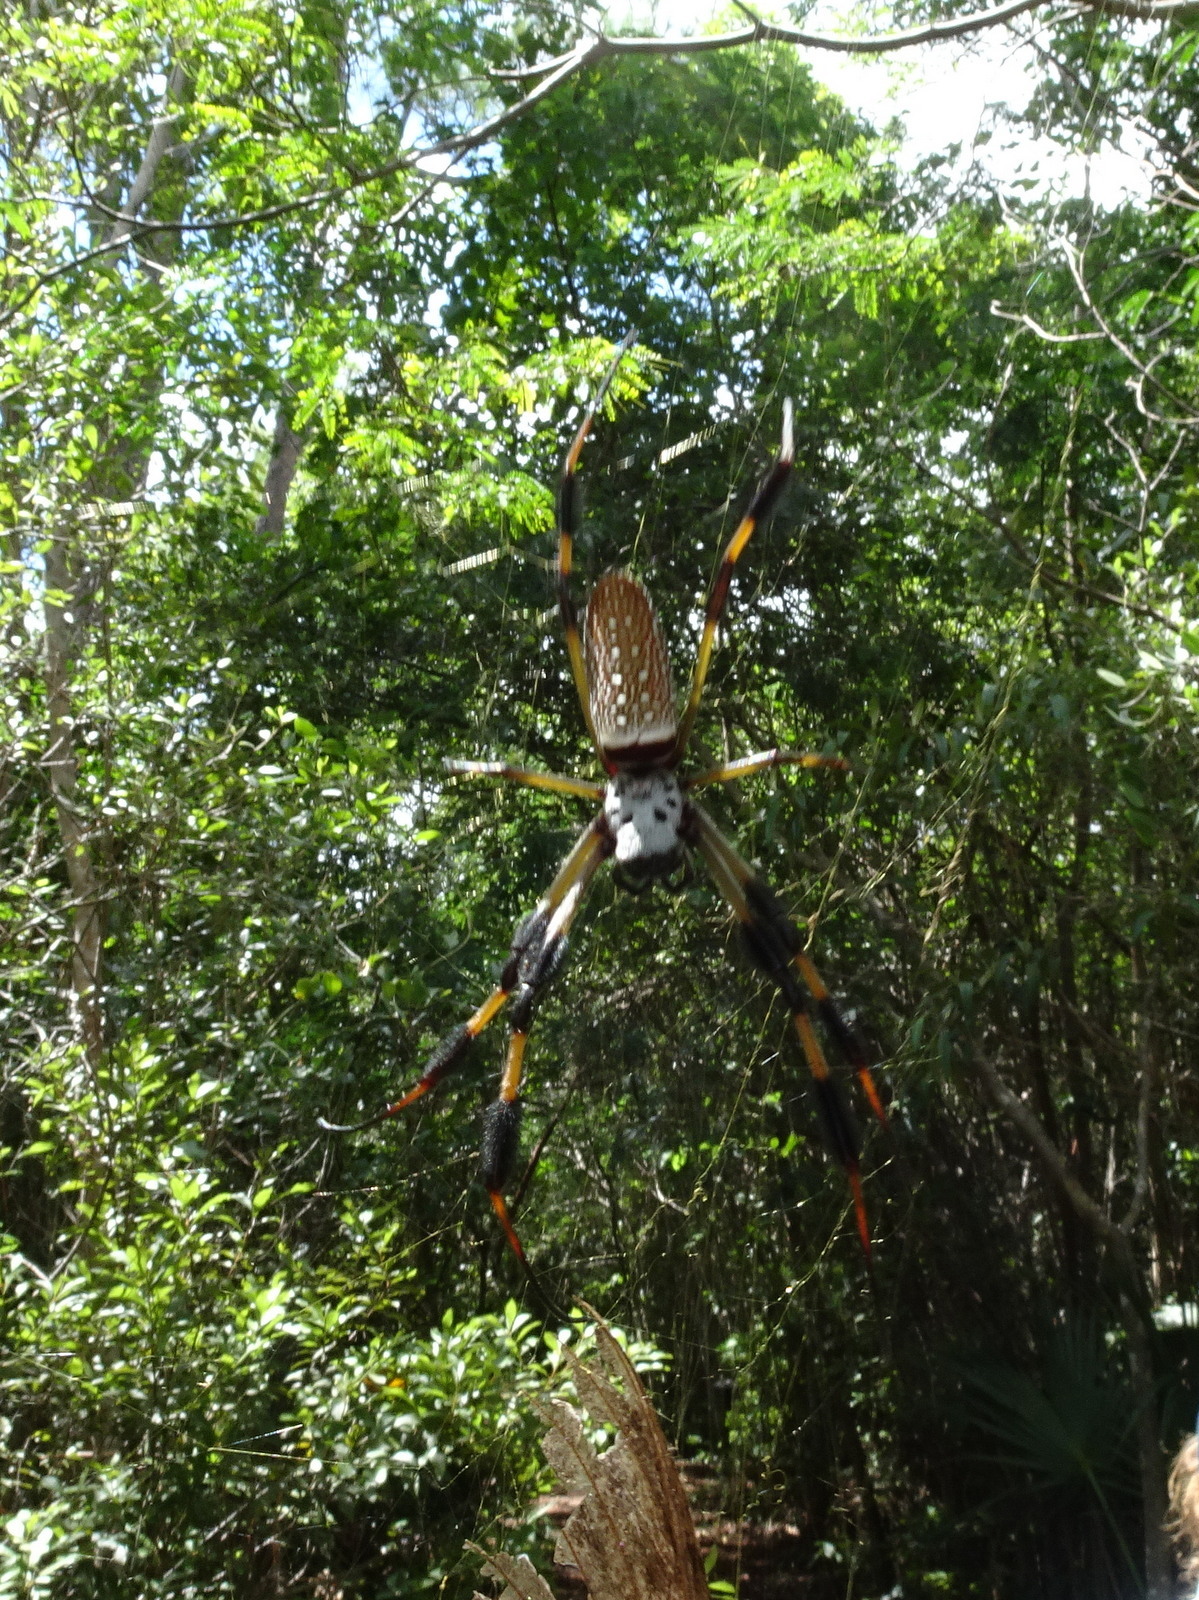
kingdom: Animalia
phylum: Arthropoda
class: Arachnida
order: Araneae
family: Araneidae
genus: Trichonephila
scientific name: Trichonephila clavipes
